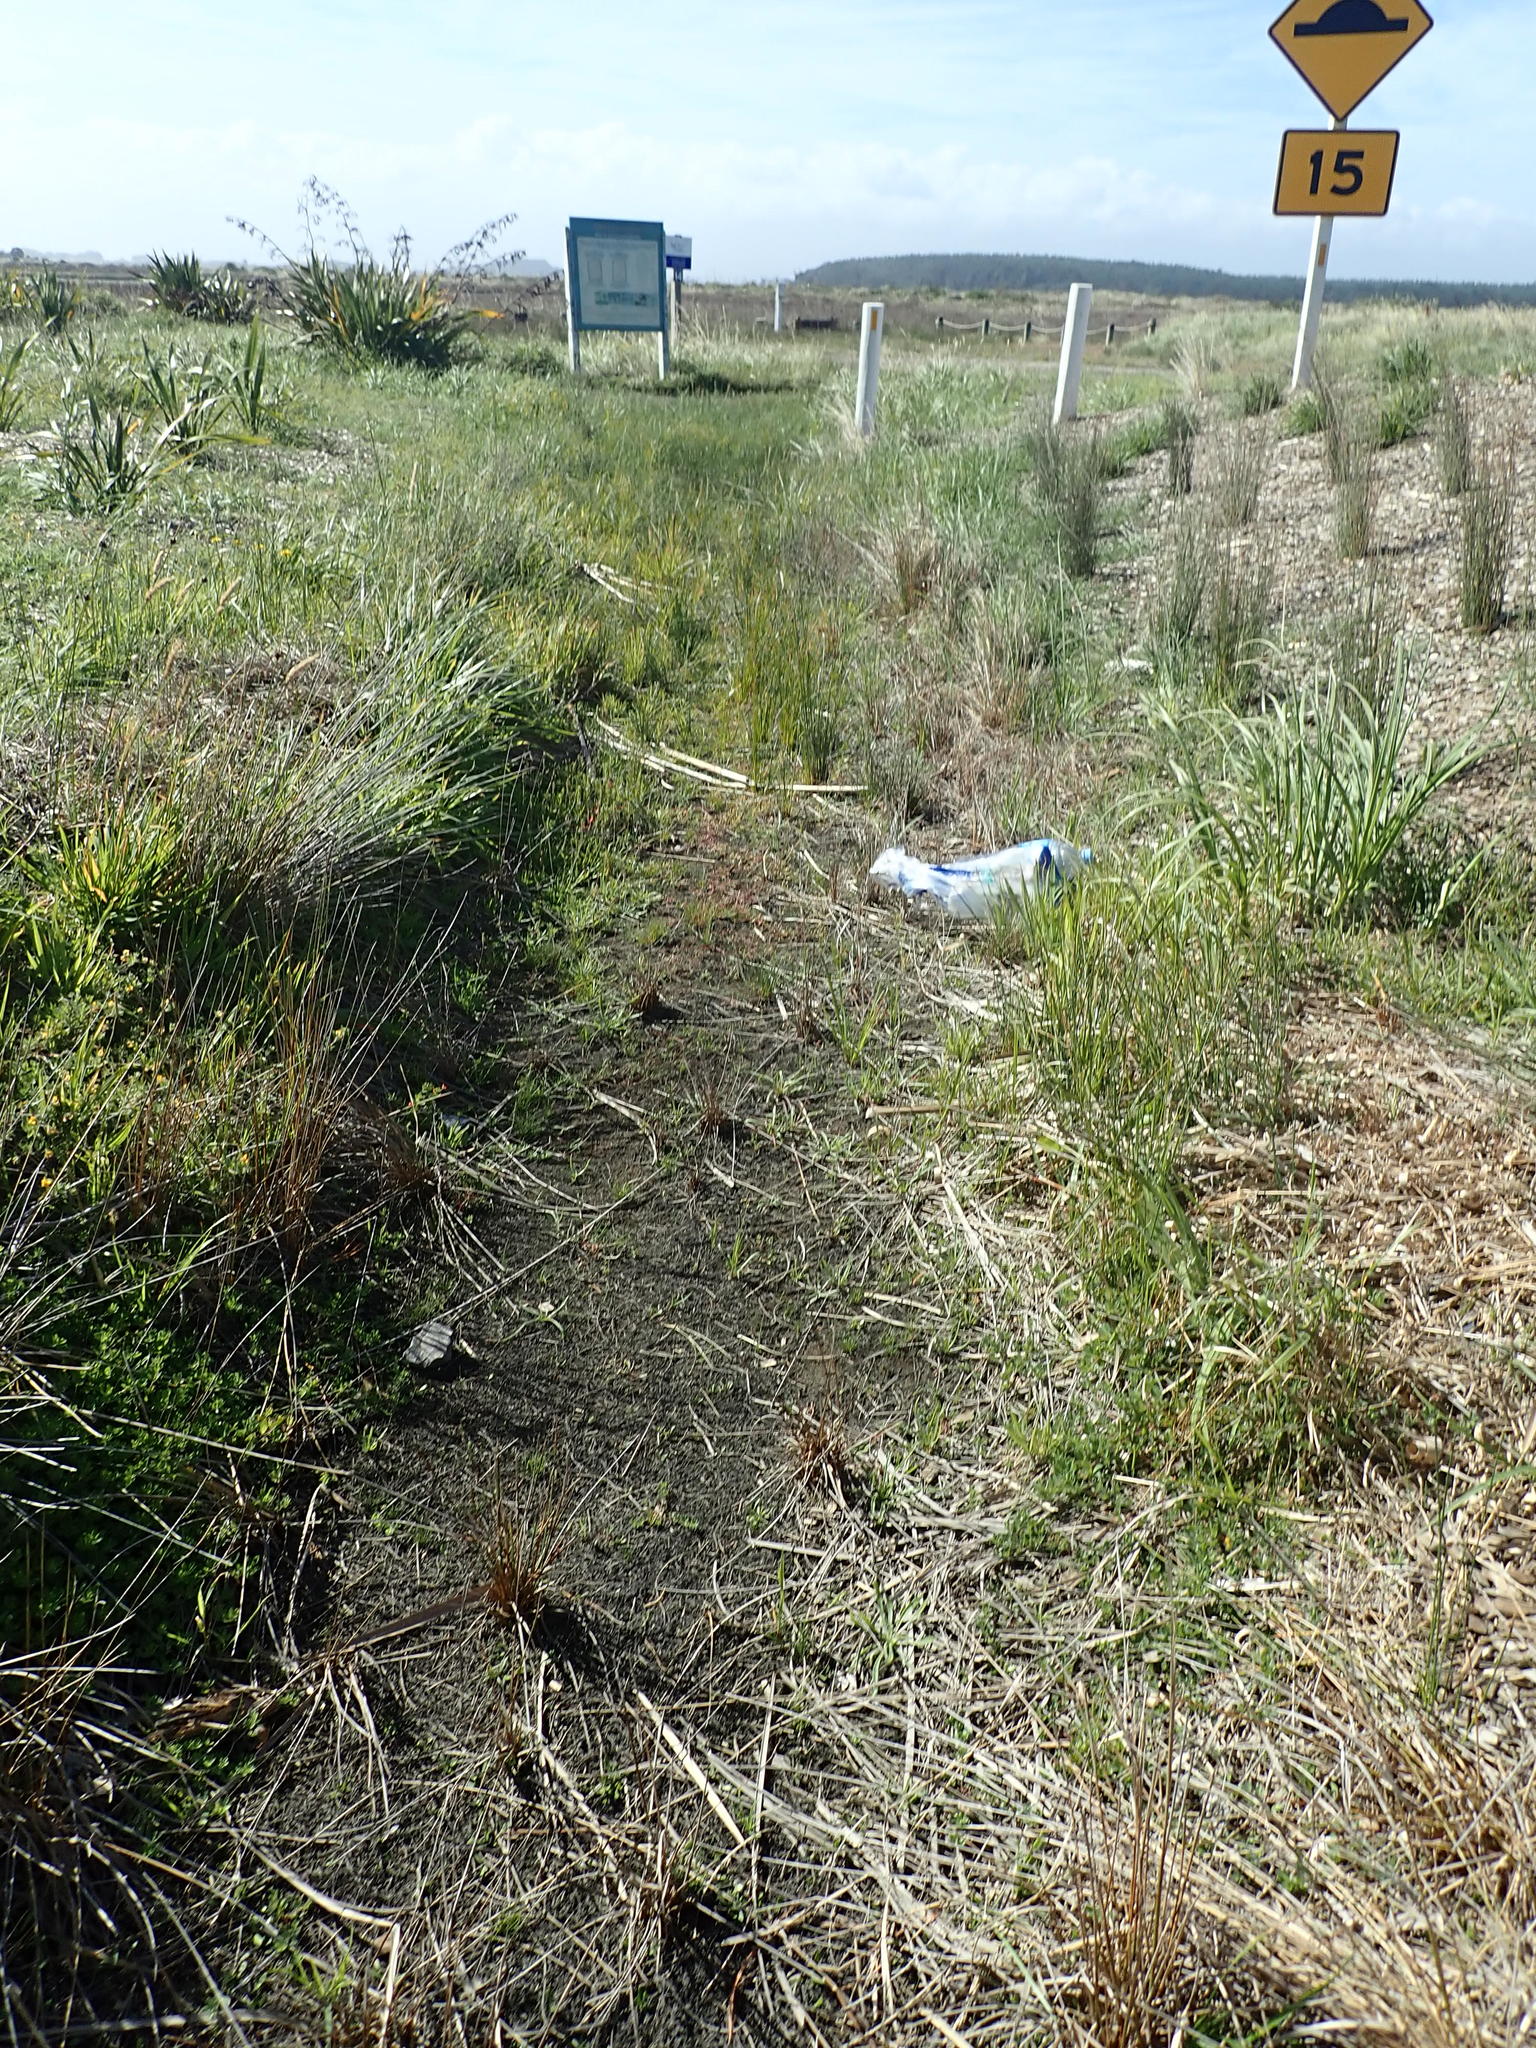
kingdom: Plantae
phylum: Tracheophyta
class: Magnoliopsida
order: Lamiales
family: Plantaginaceae
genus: Plantago
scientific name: Plantago coronopus
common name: Buck's-horn plantain
